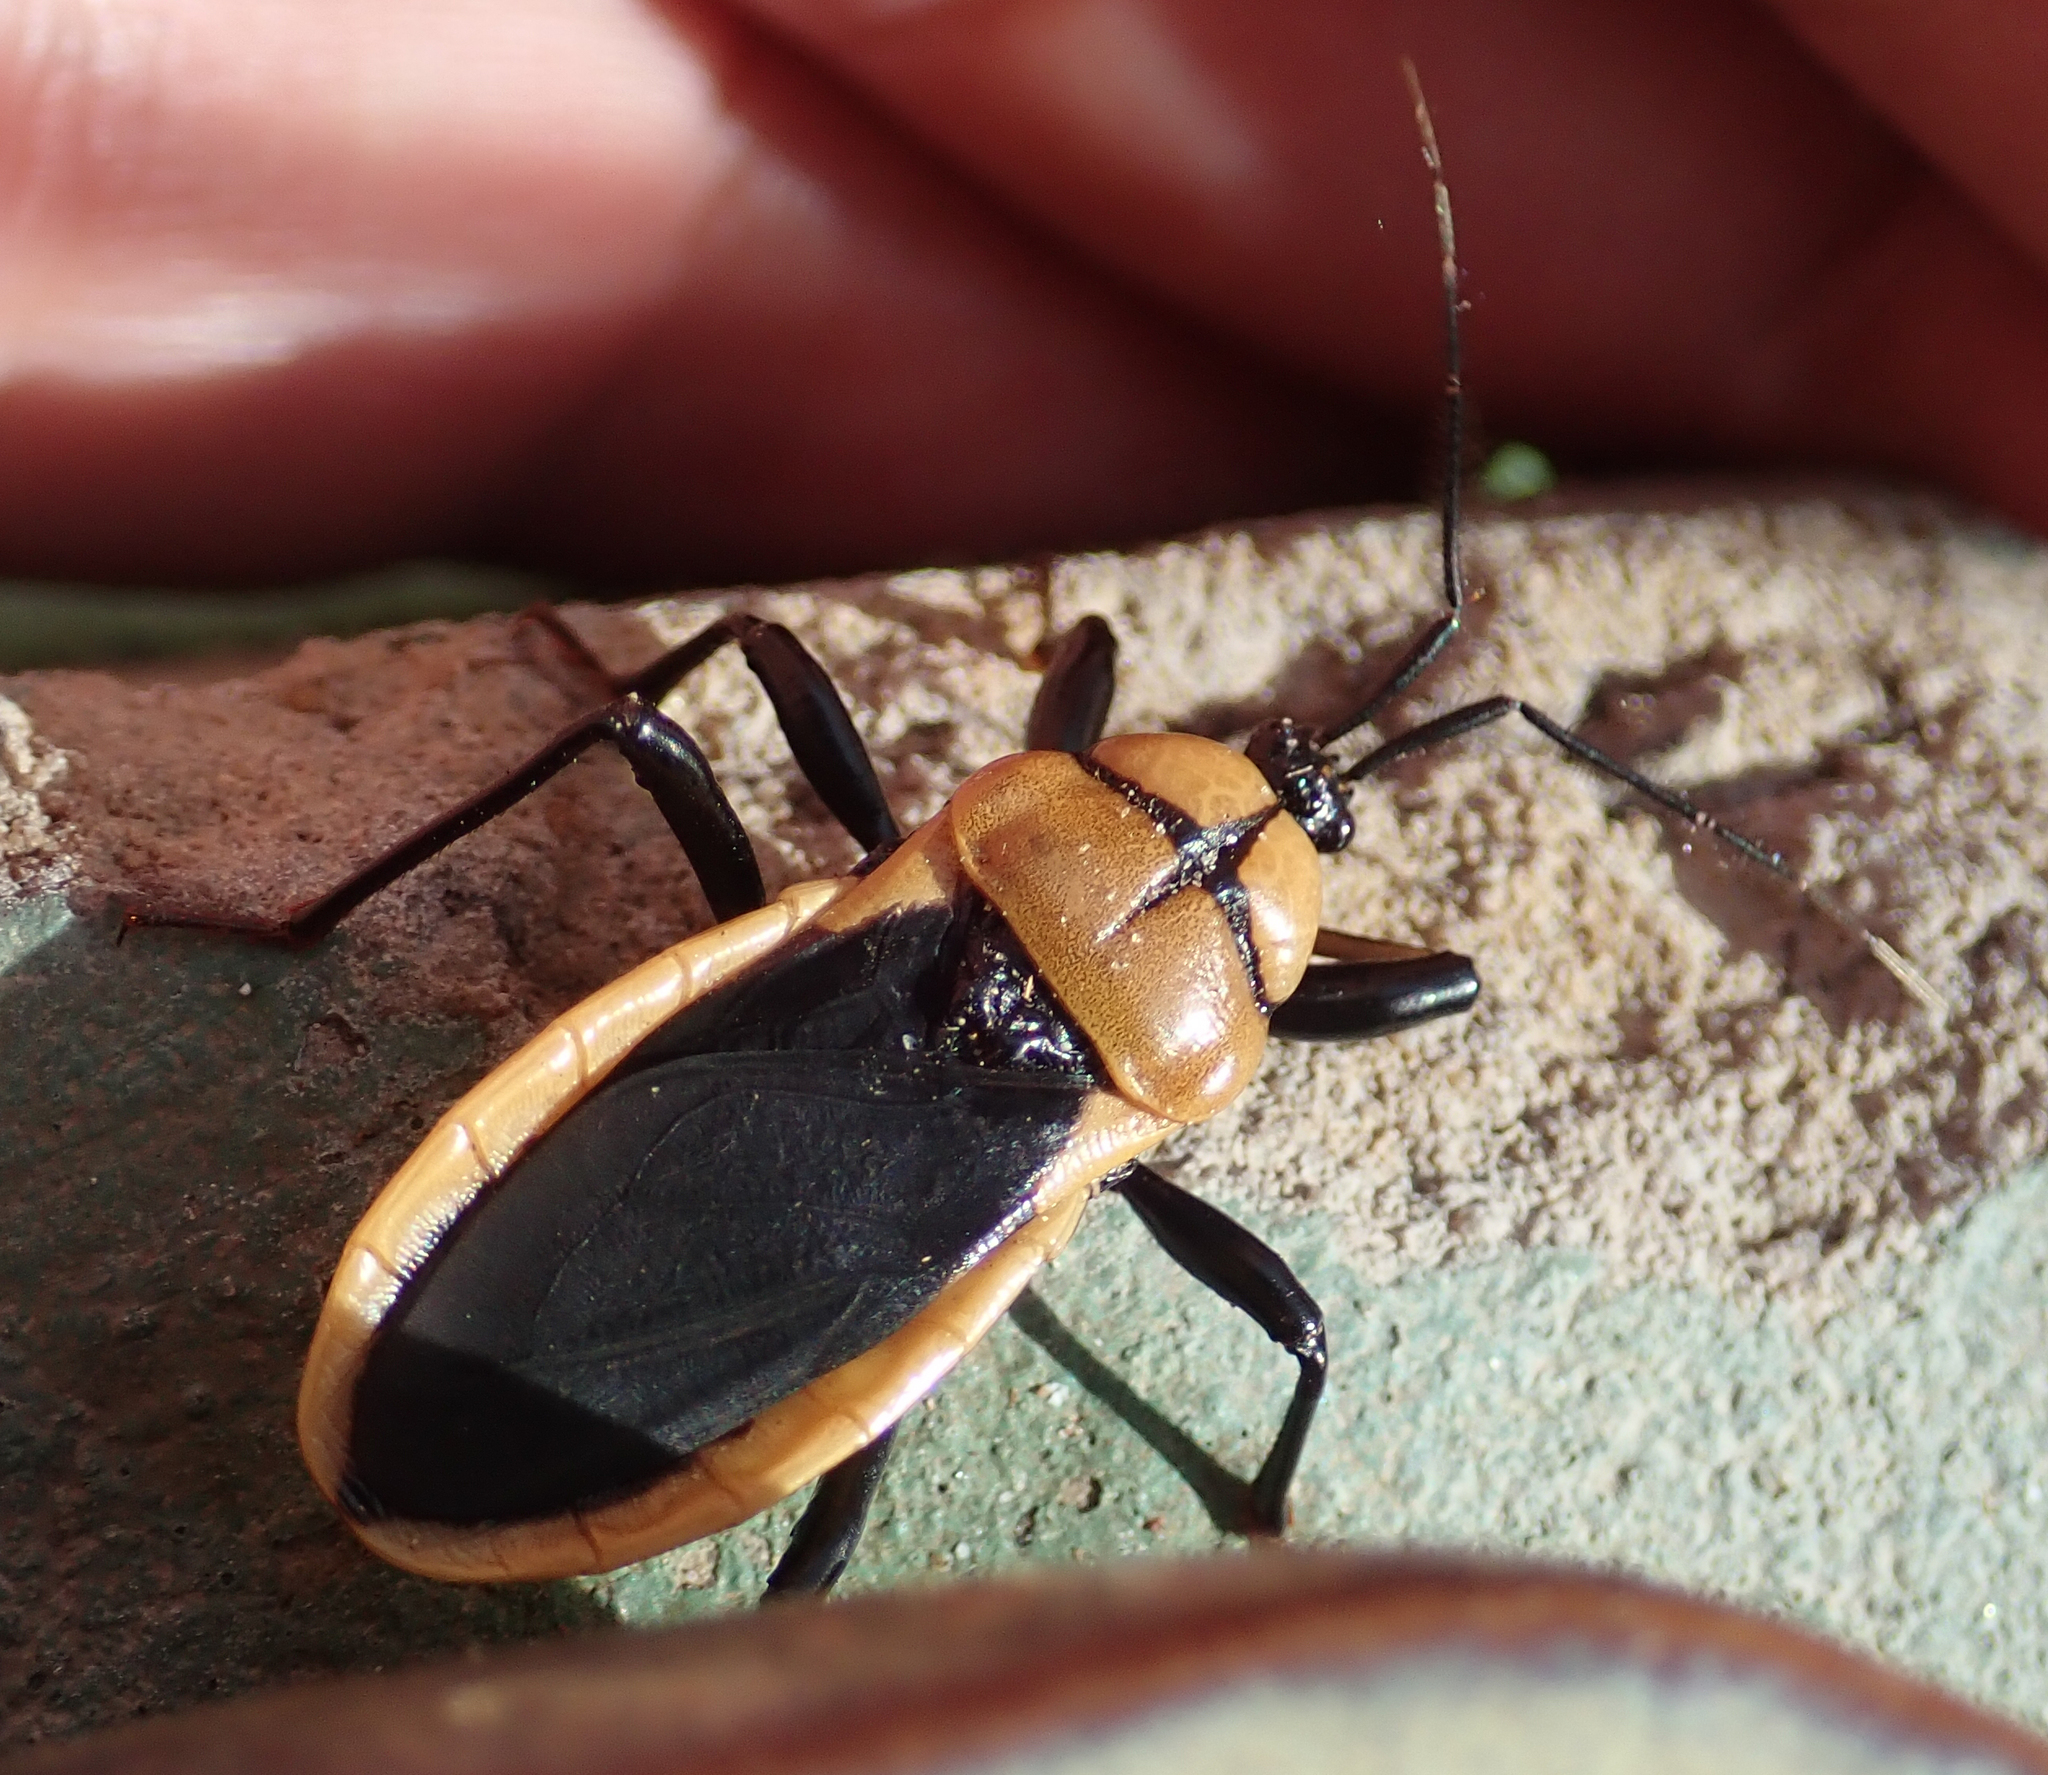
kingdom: Animalia
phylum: Arthropoda
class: Insecta
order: Hemiptera
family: Reduviidae
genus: Ectrichodia
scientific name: Ectrichodia crux
